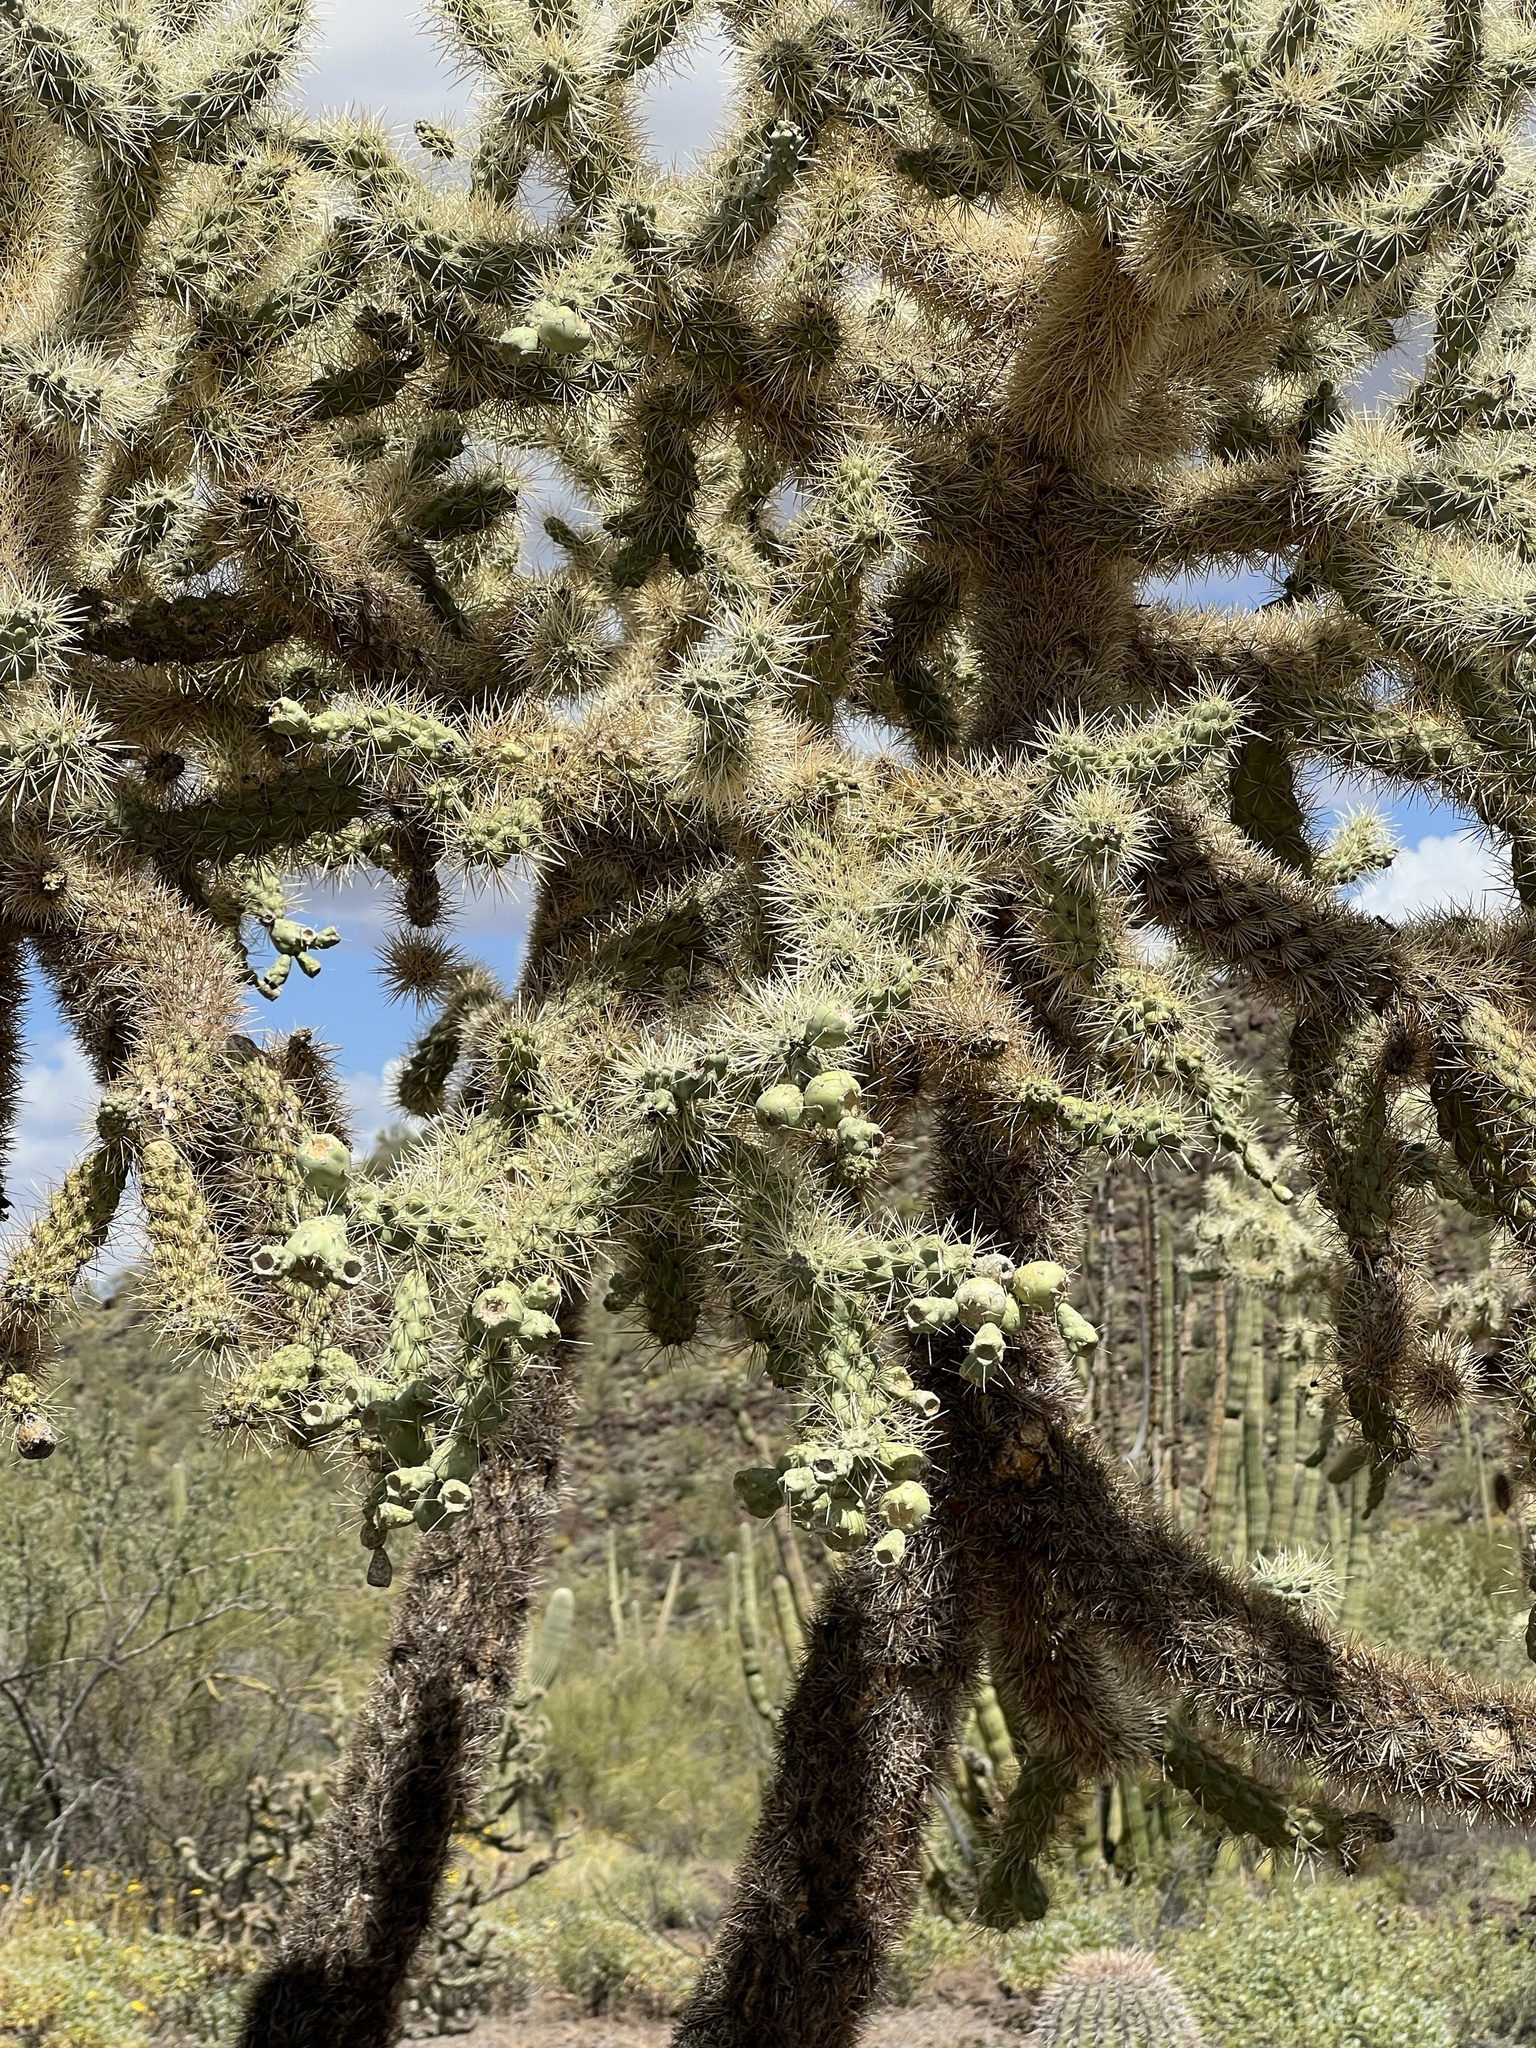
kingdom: Plantae
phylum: Tracheophyta
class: Magnoliopsida
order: Caryophyllales
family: Cactaceae
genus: Cylindropuntia
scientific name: Cylindropuntia fulgida
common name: Jumping cholla
